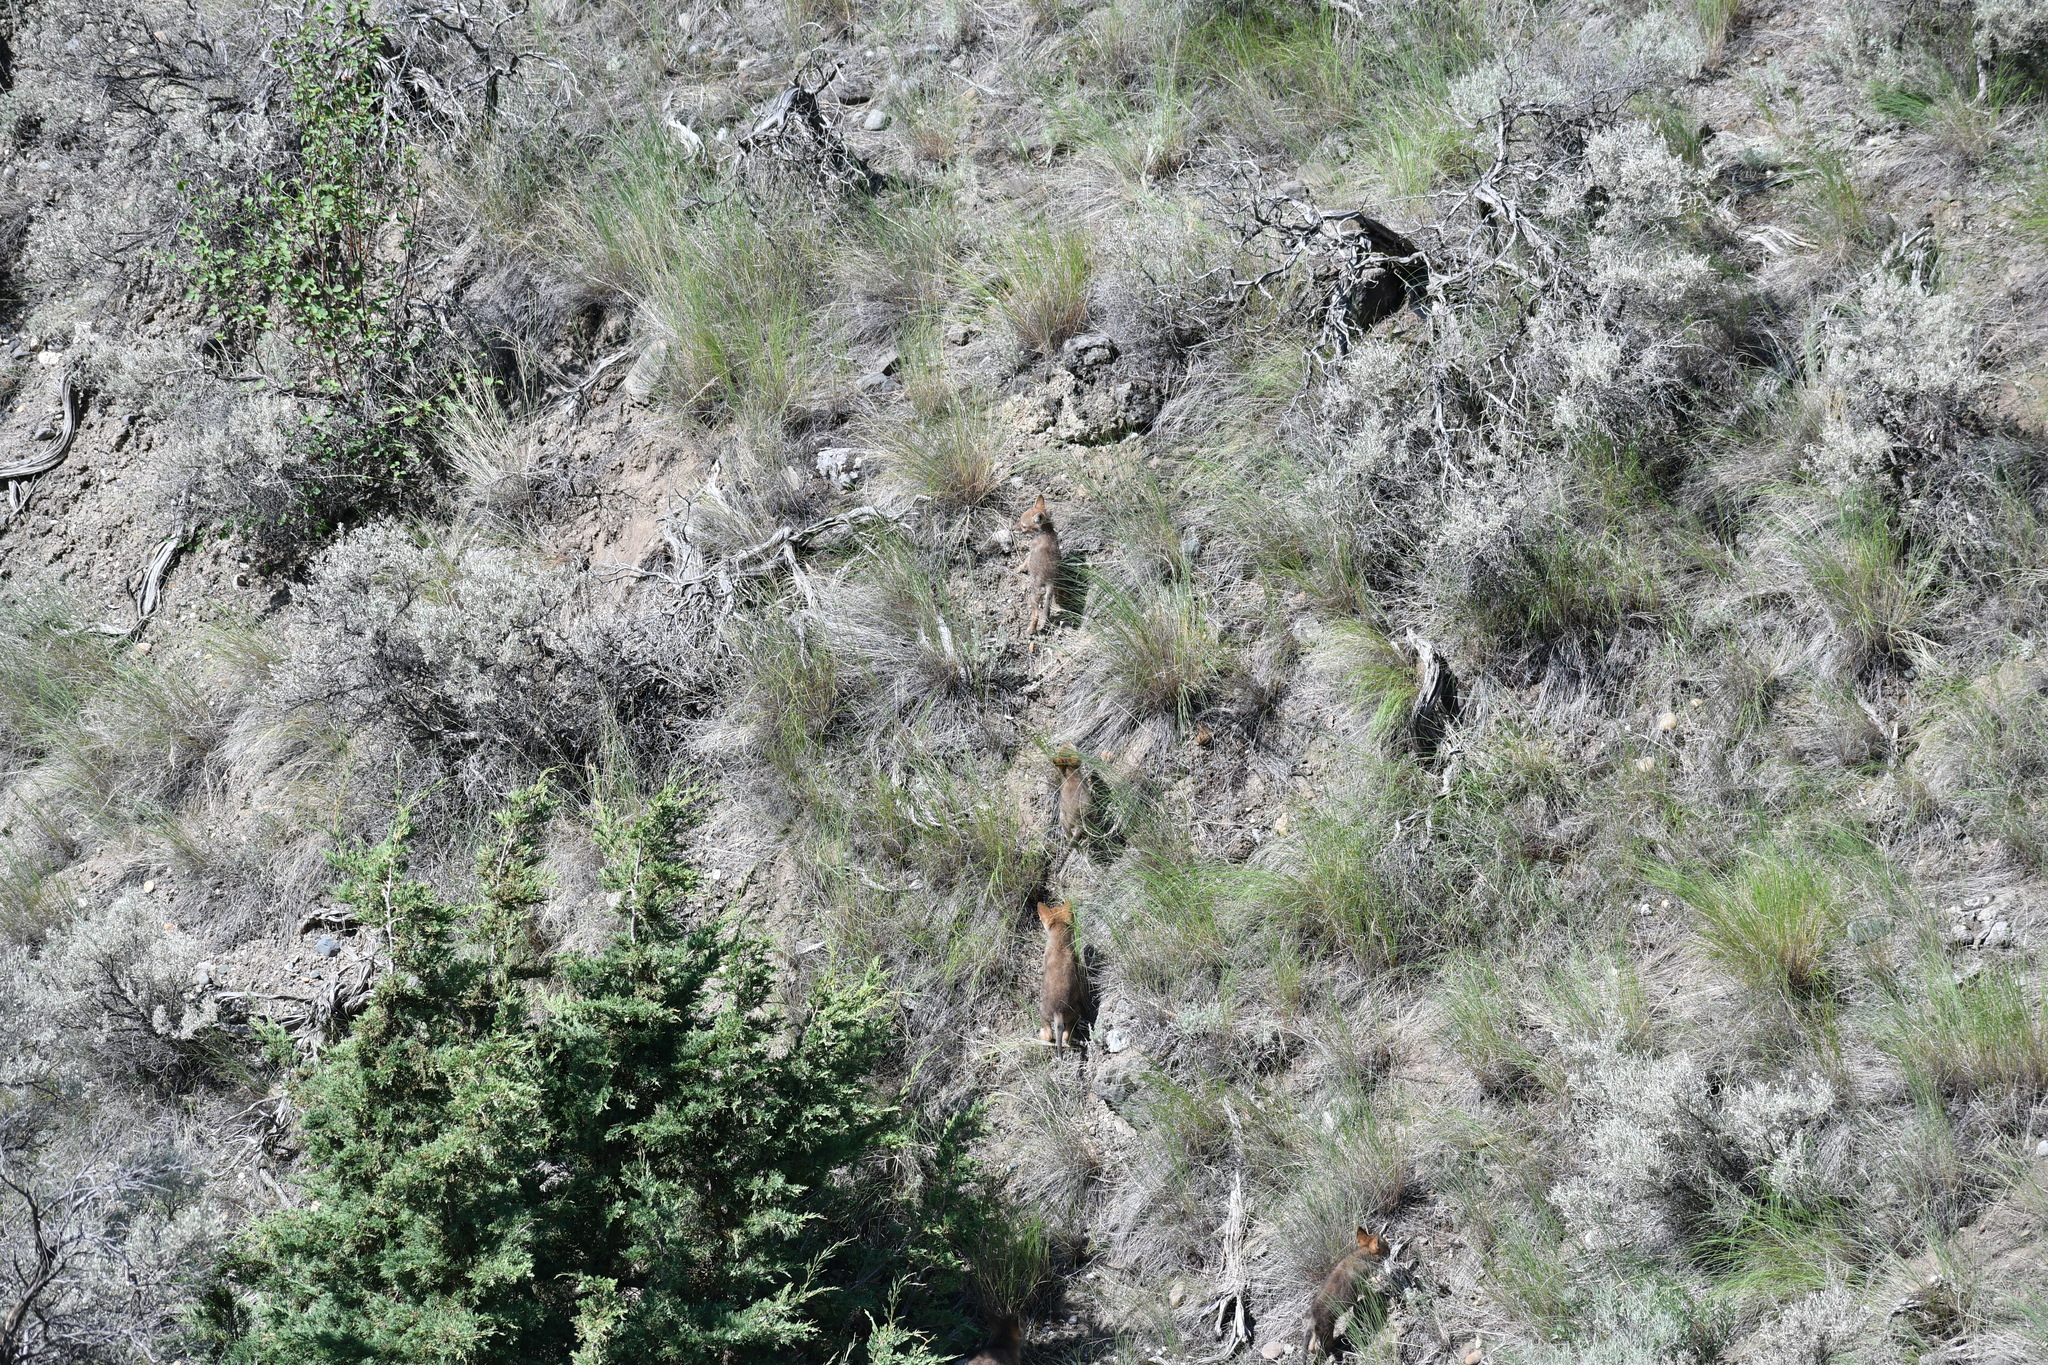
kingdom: Animalia
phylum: Chordata
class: Mammalia
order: Carnivora
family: Canidae
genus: Canis
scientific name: Canis latrans
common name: Coyote
